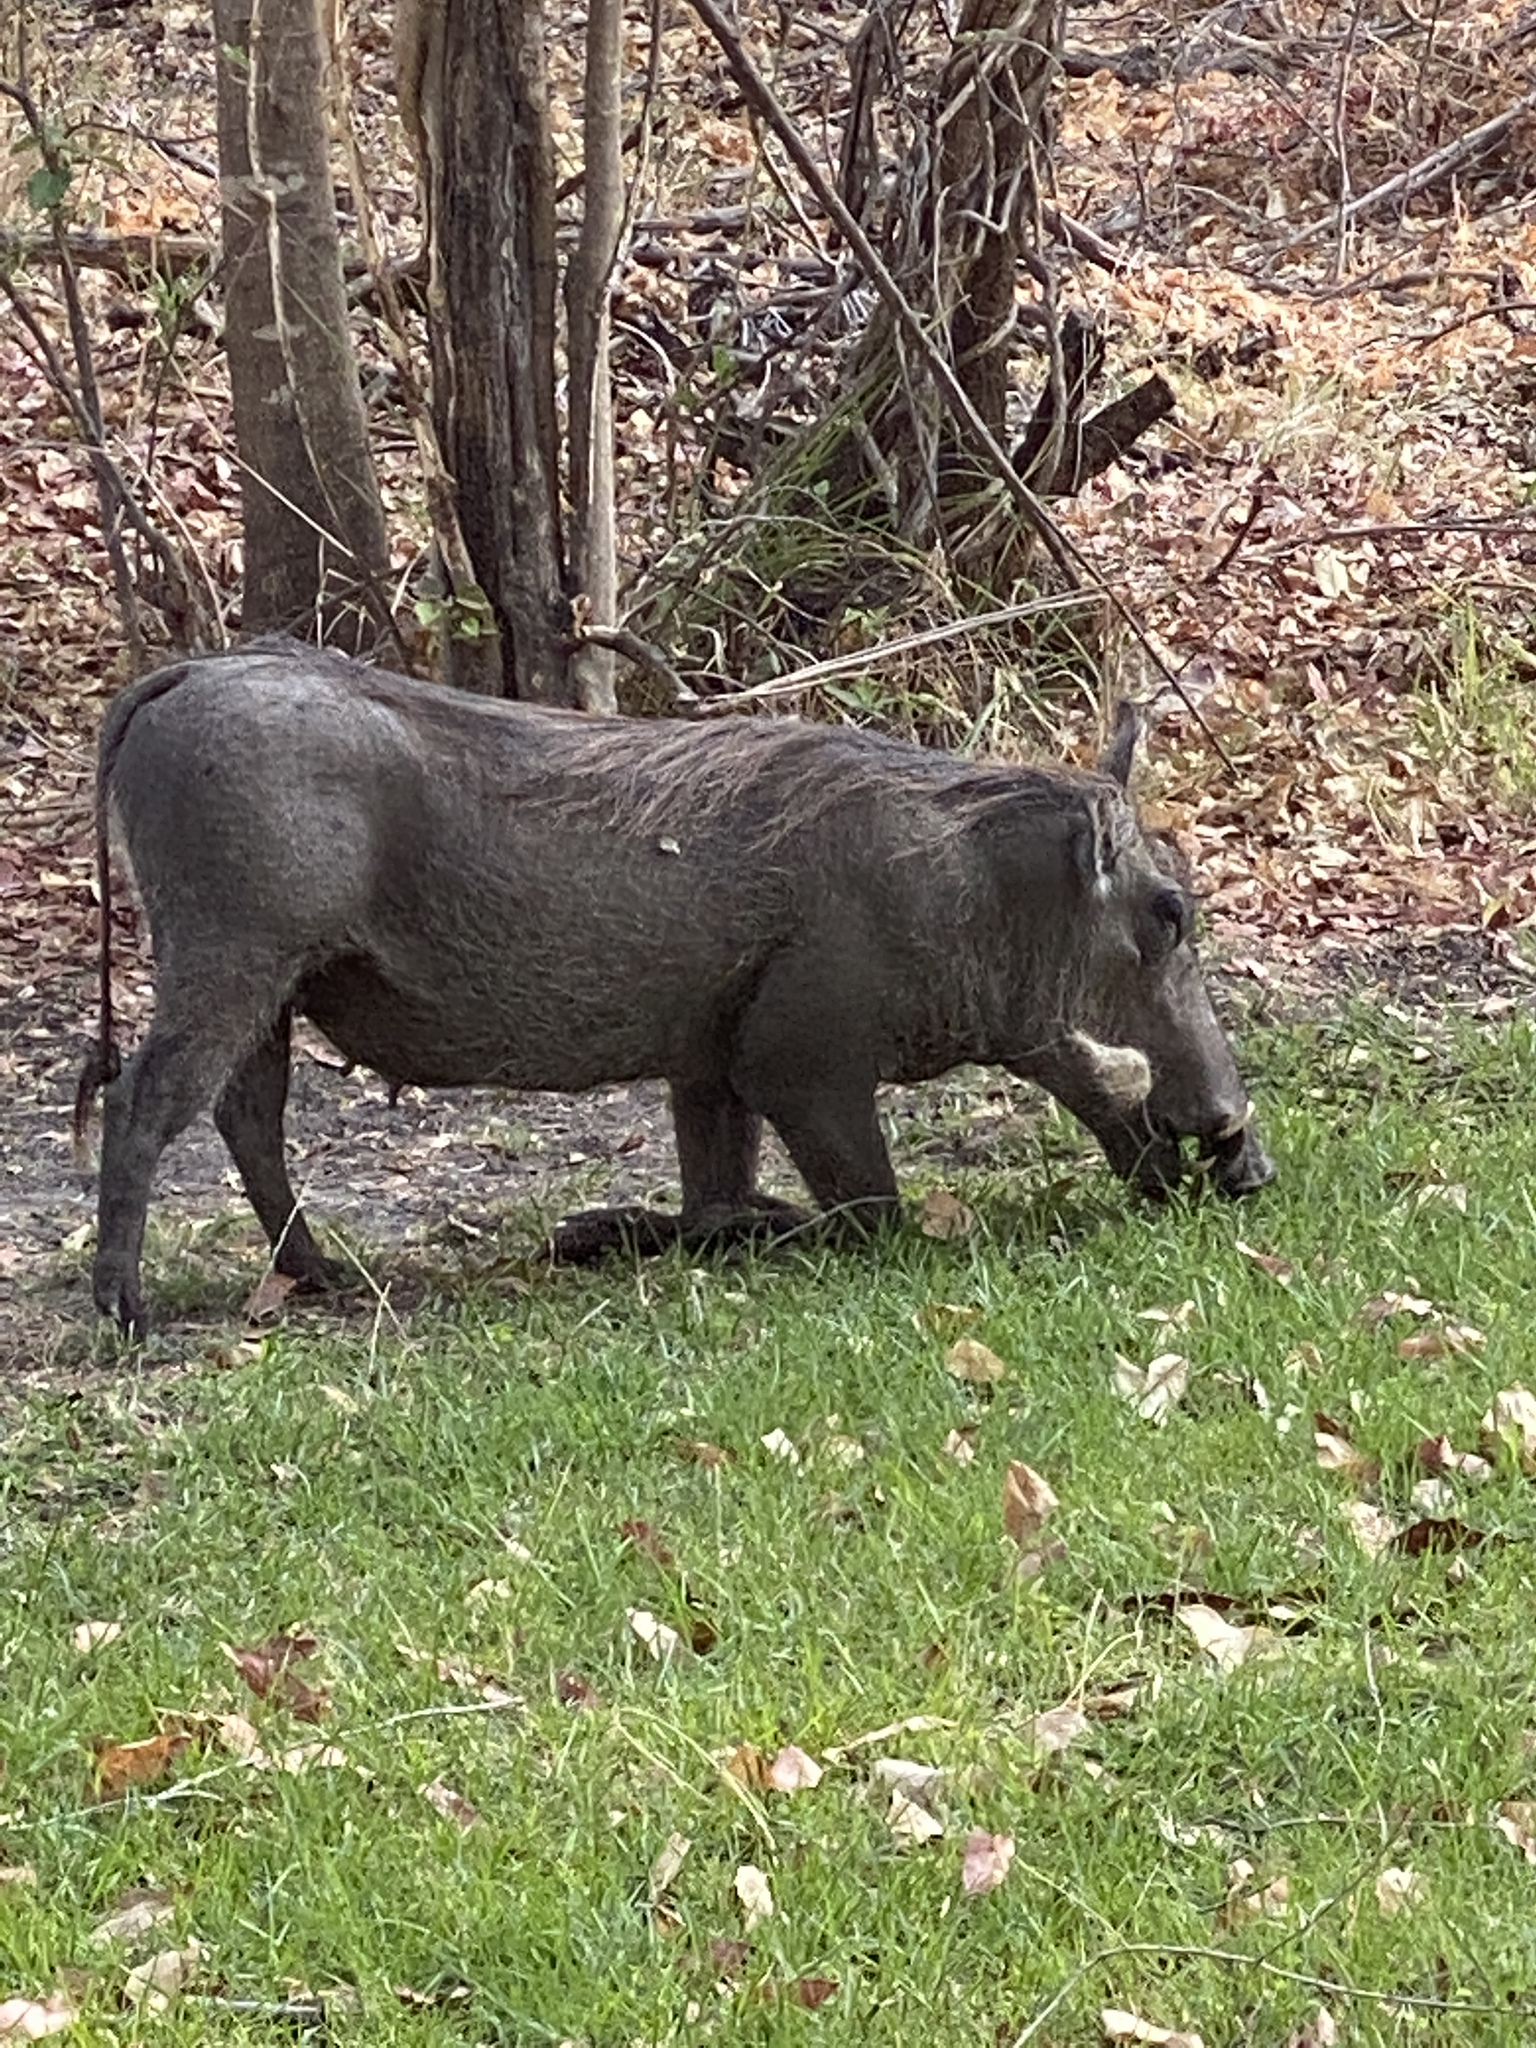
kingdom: Animalia
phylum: Chordata
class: Mammalia
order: Artiodactyla
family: Suidae
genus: Phacochoerus
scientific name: Phacochoerus africanus
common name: Common warthog
